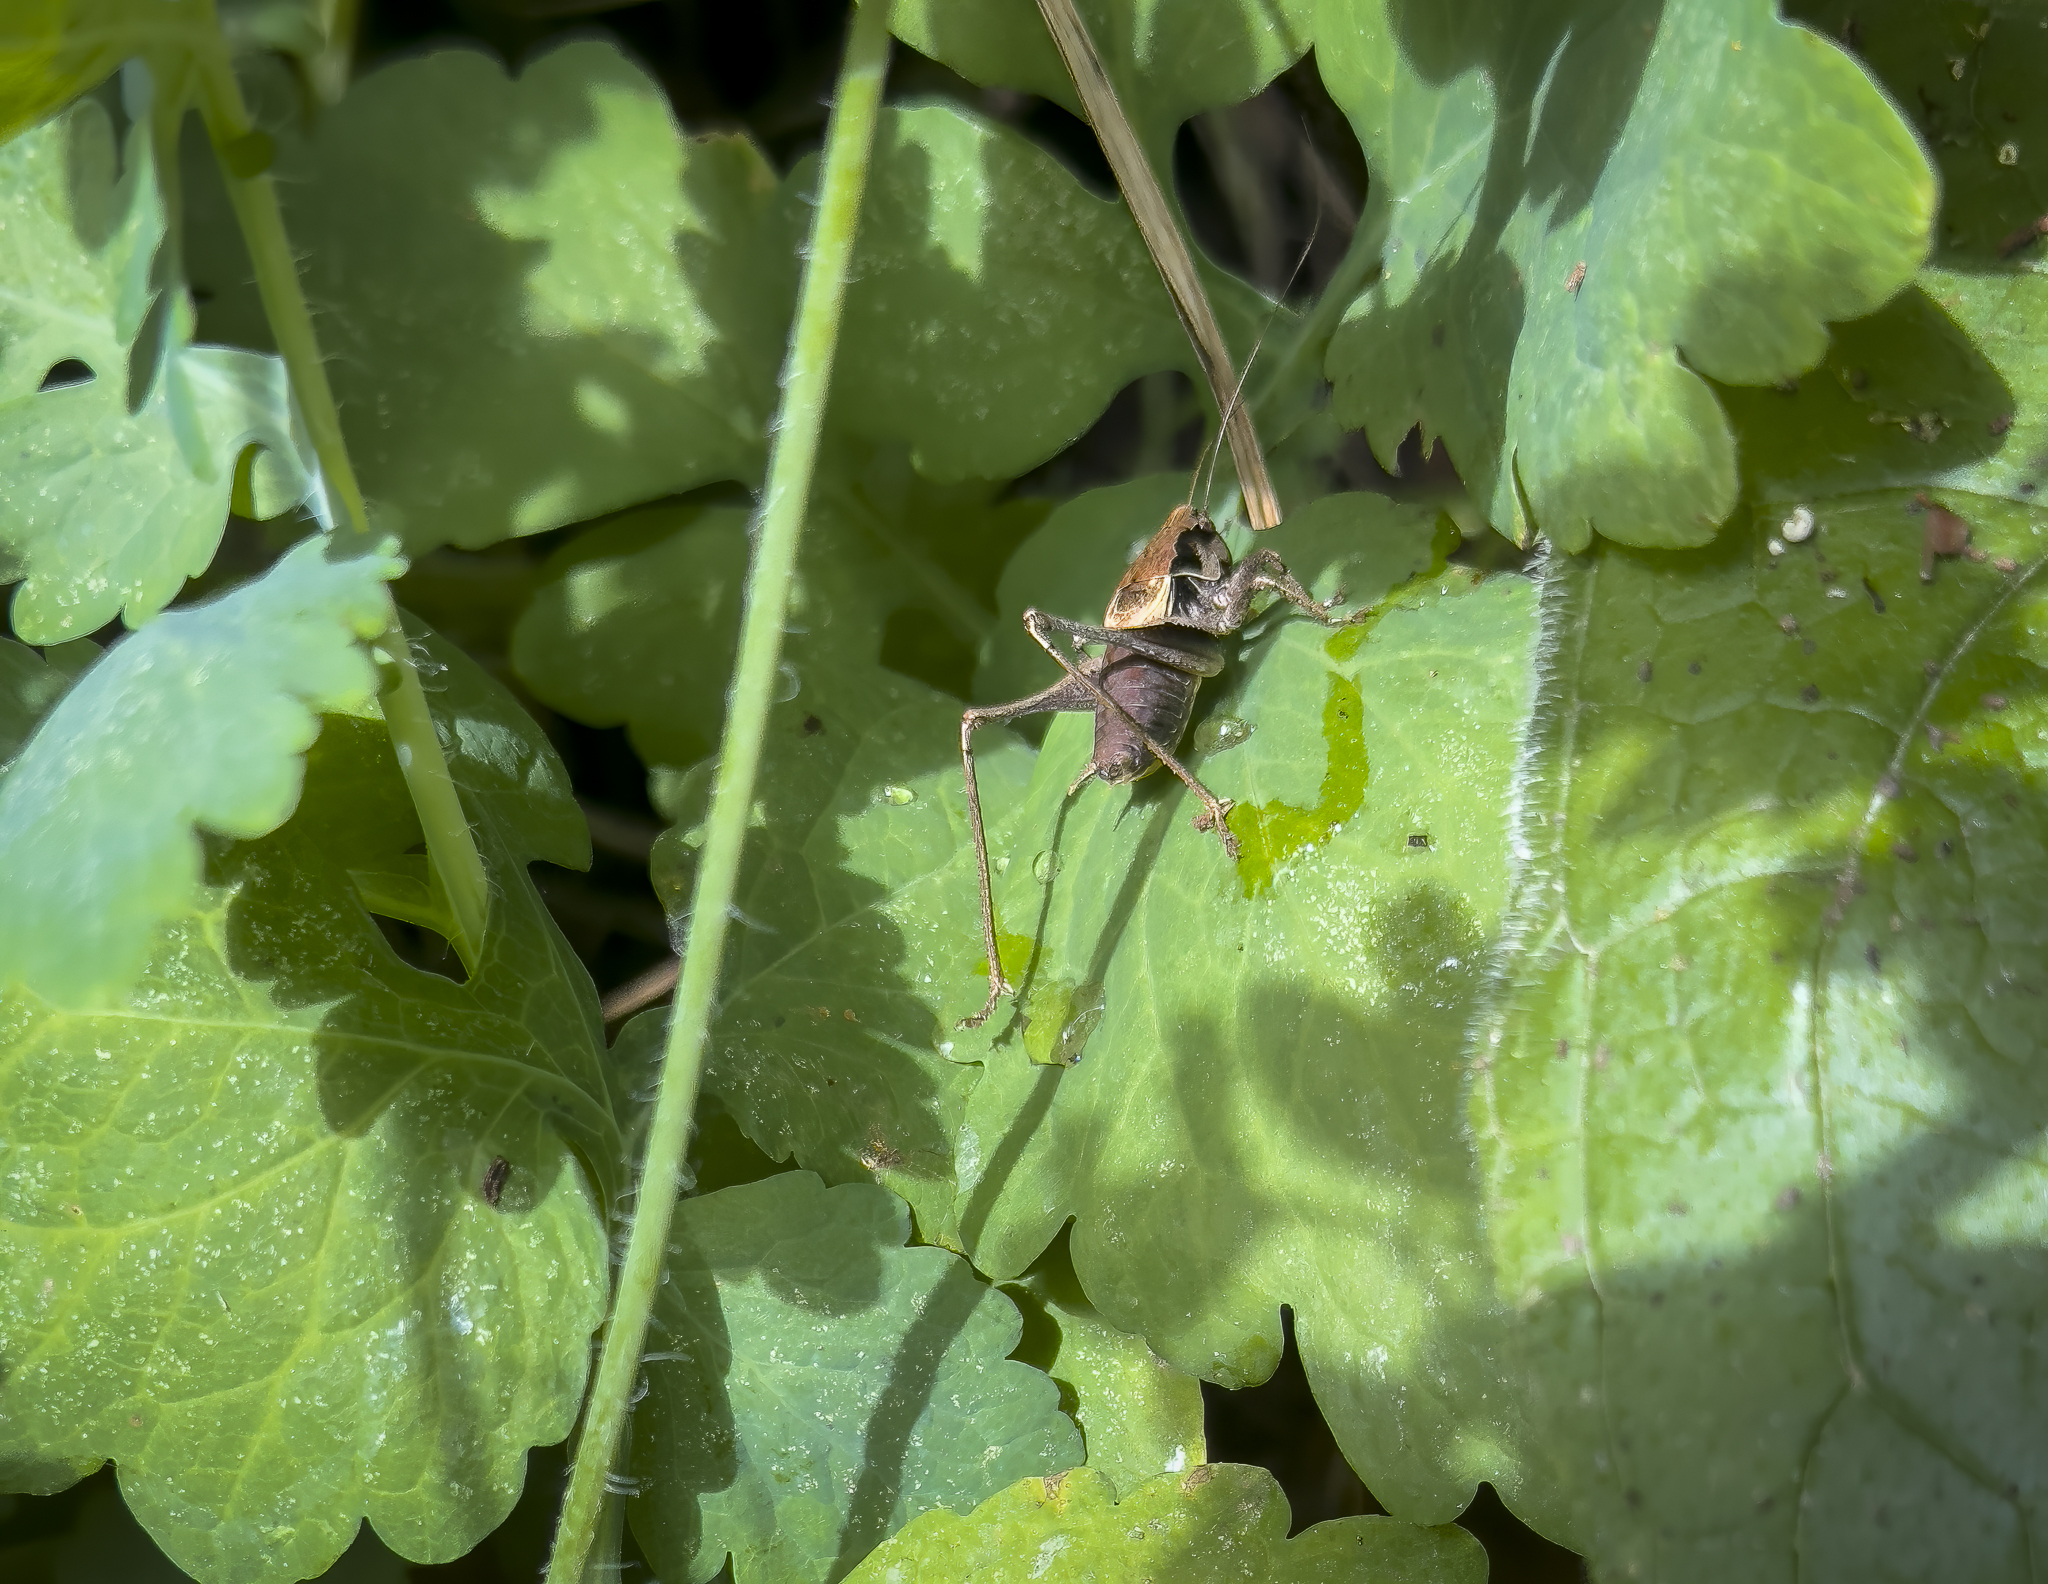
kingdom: Animalia
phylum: Arthropoda
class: Insecta
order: Orthoptera
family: Tettigoniidae
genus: Pholidoptera
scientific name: Pholidoptera griseoaptera
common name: Dark bush-cricket
